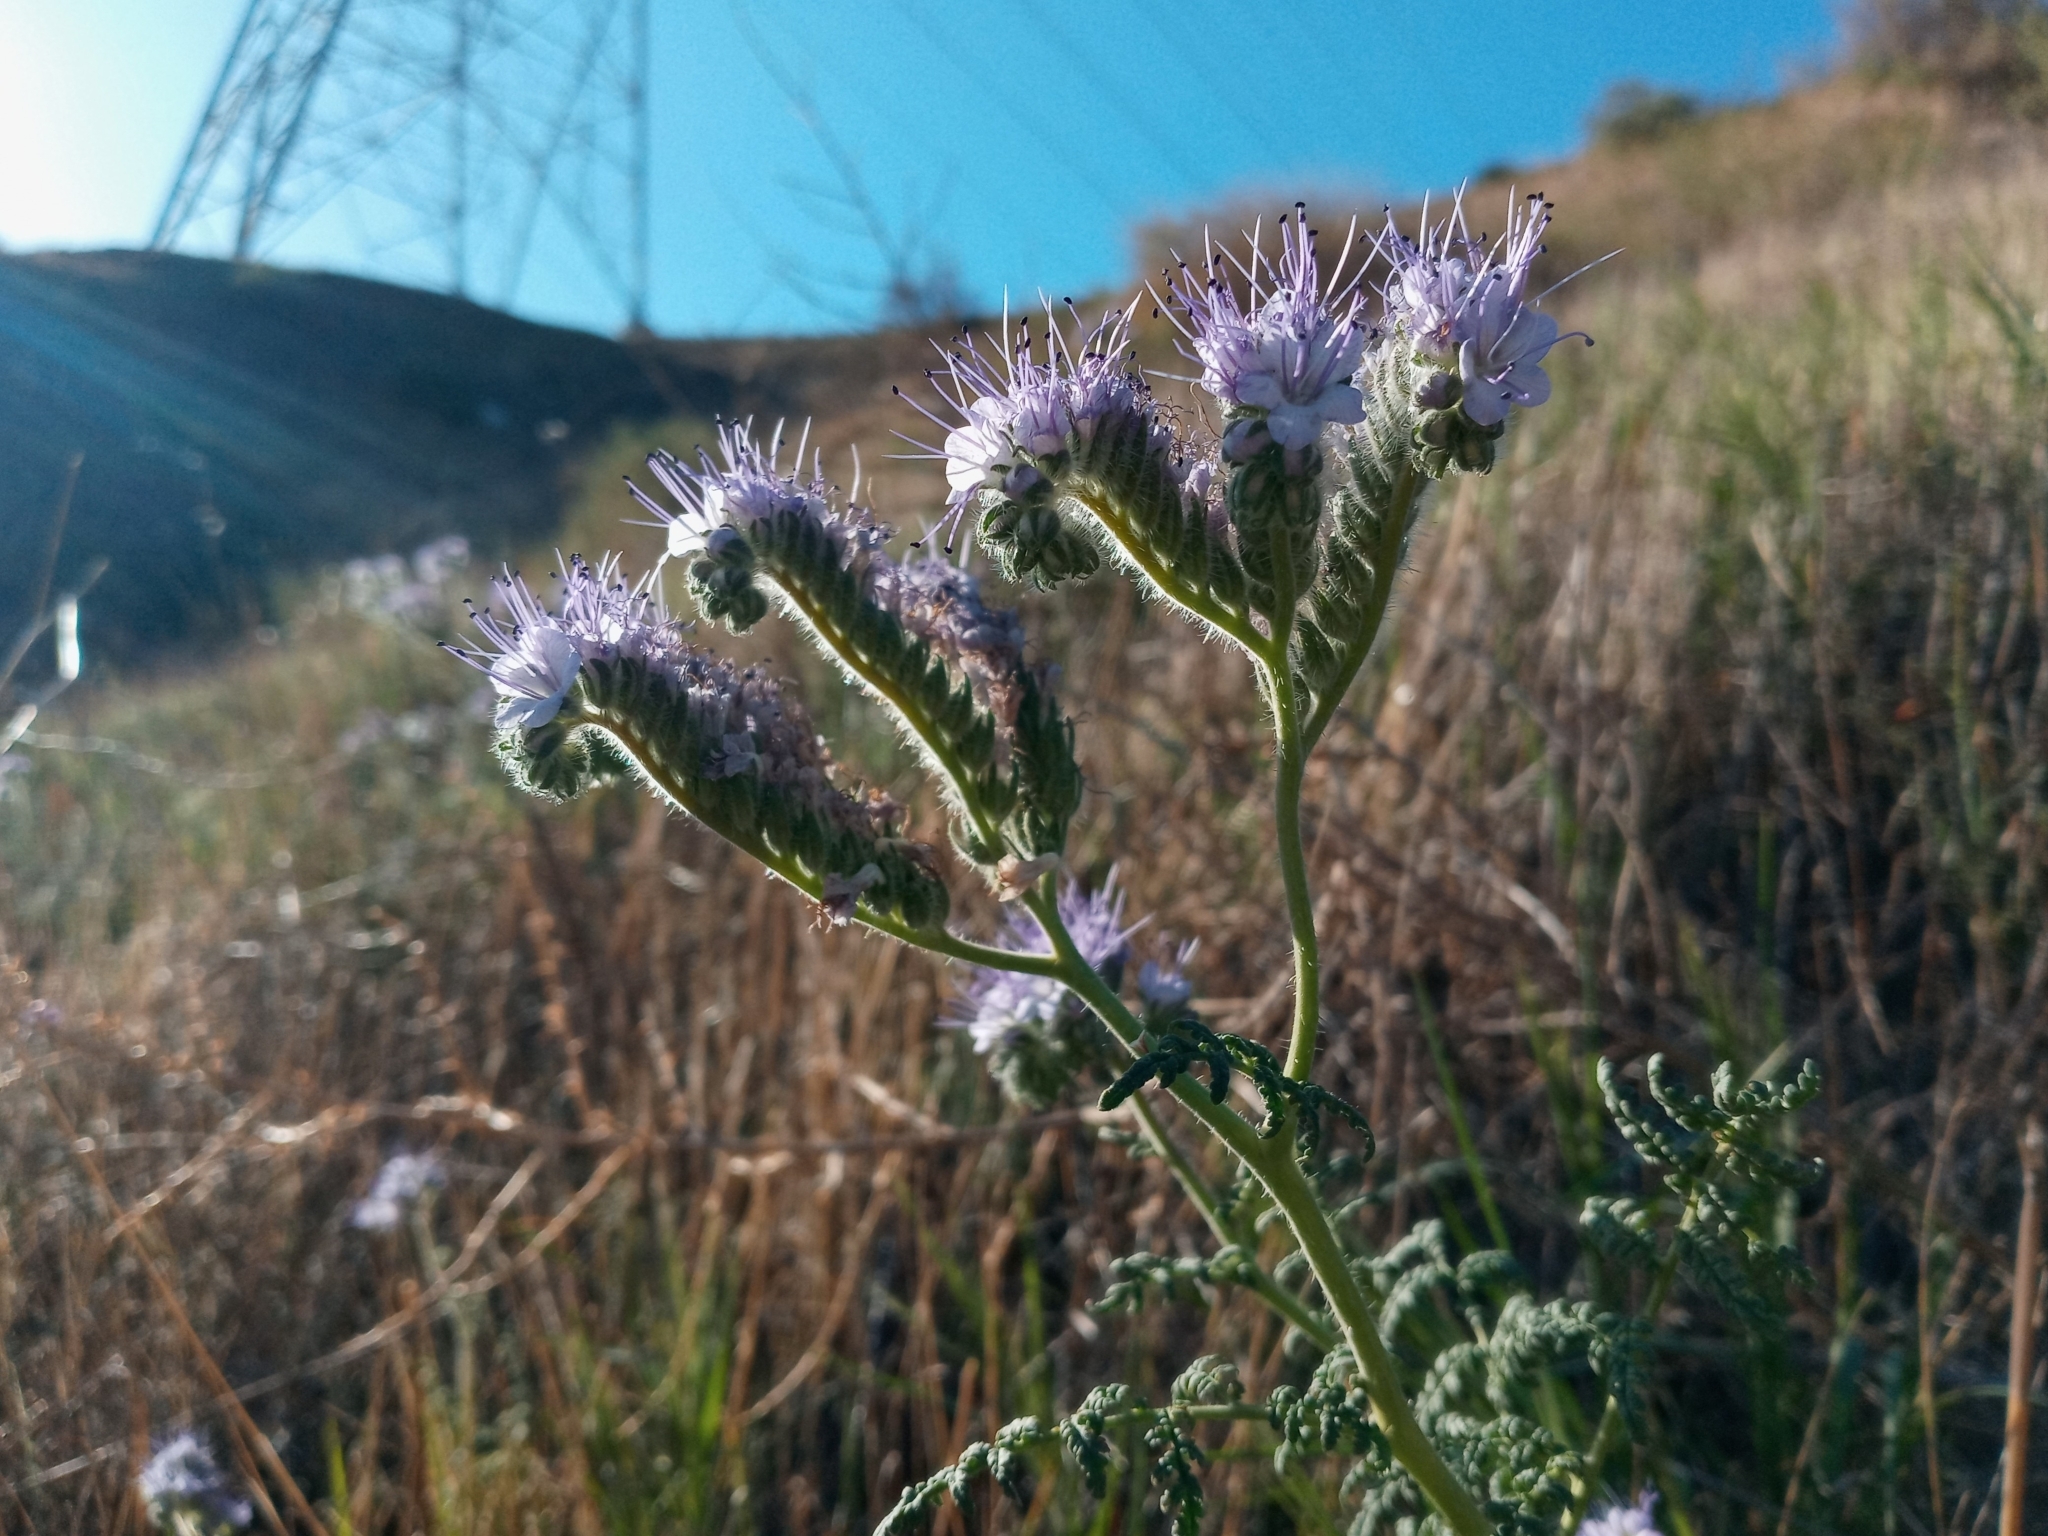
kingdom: Plantae
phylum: Tracheophyta
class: Magnoliopsida
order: Boraginales
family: Hydrophyllaceae
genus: Phacelia
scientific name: Phacelia tanacetifolia
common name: Phacelia
